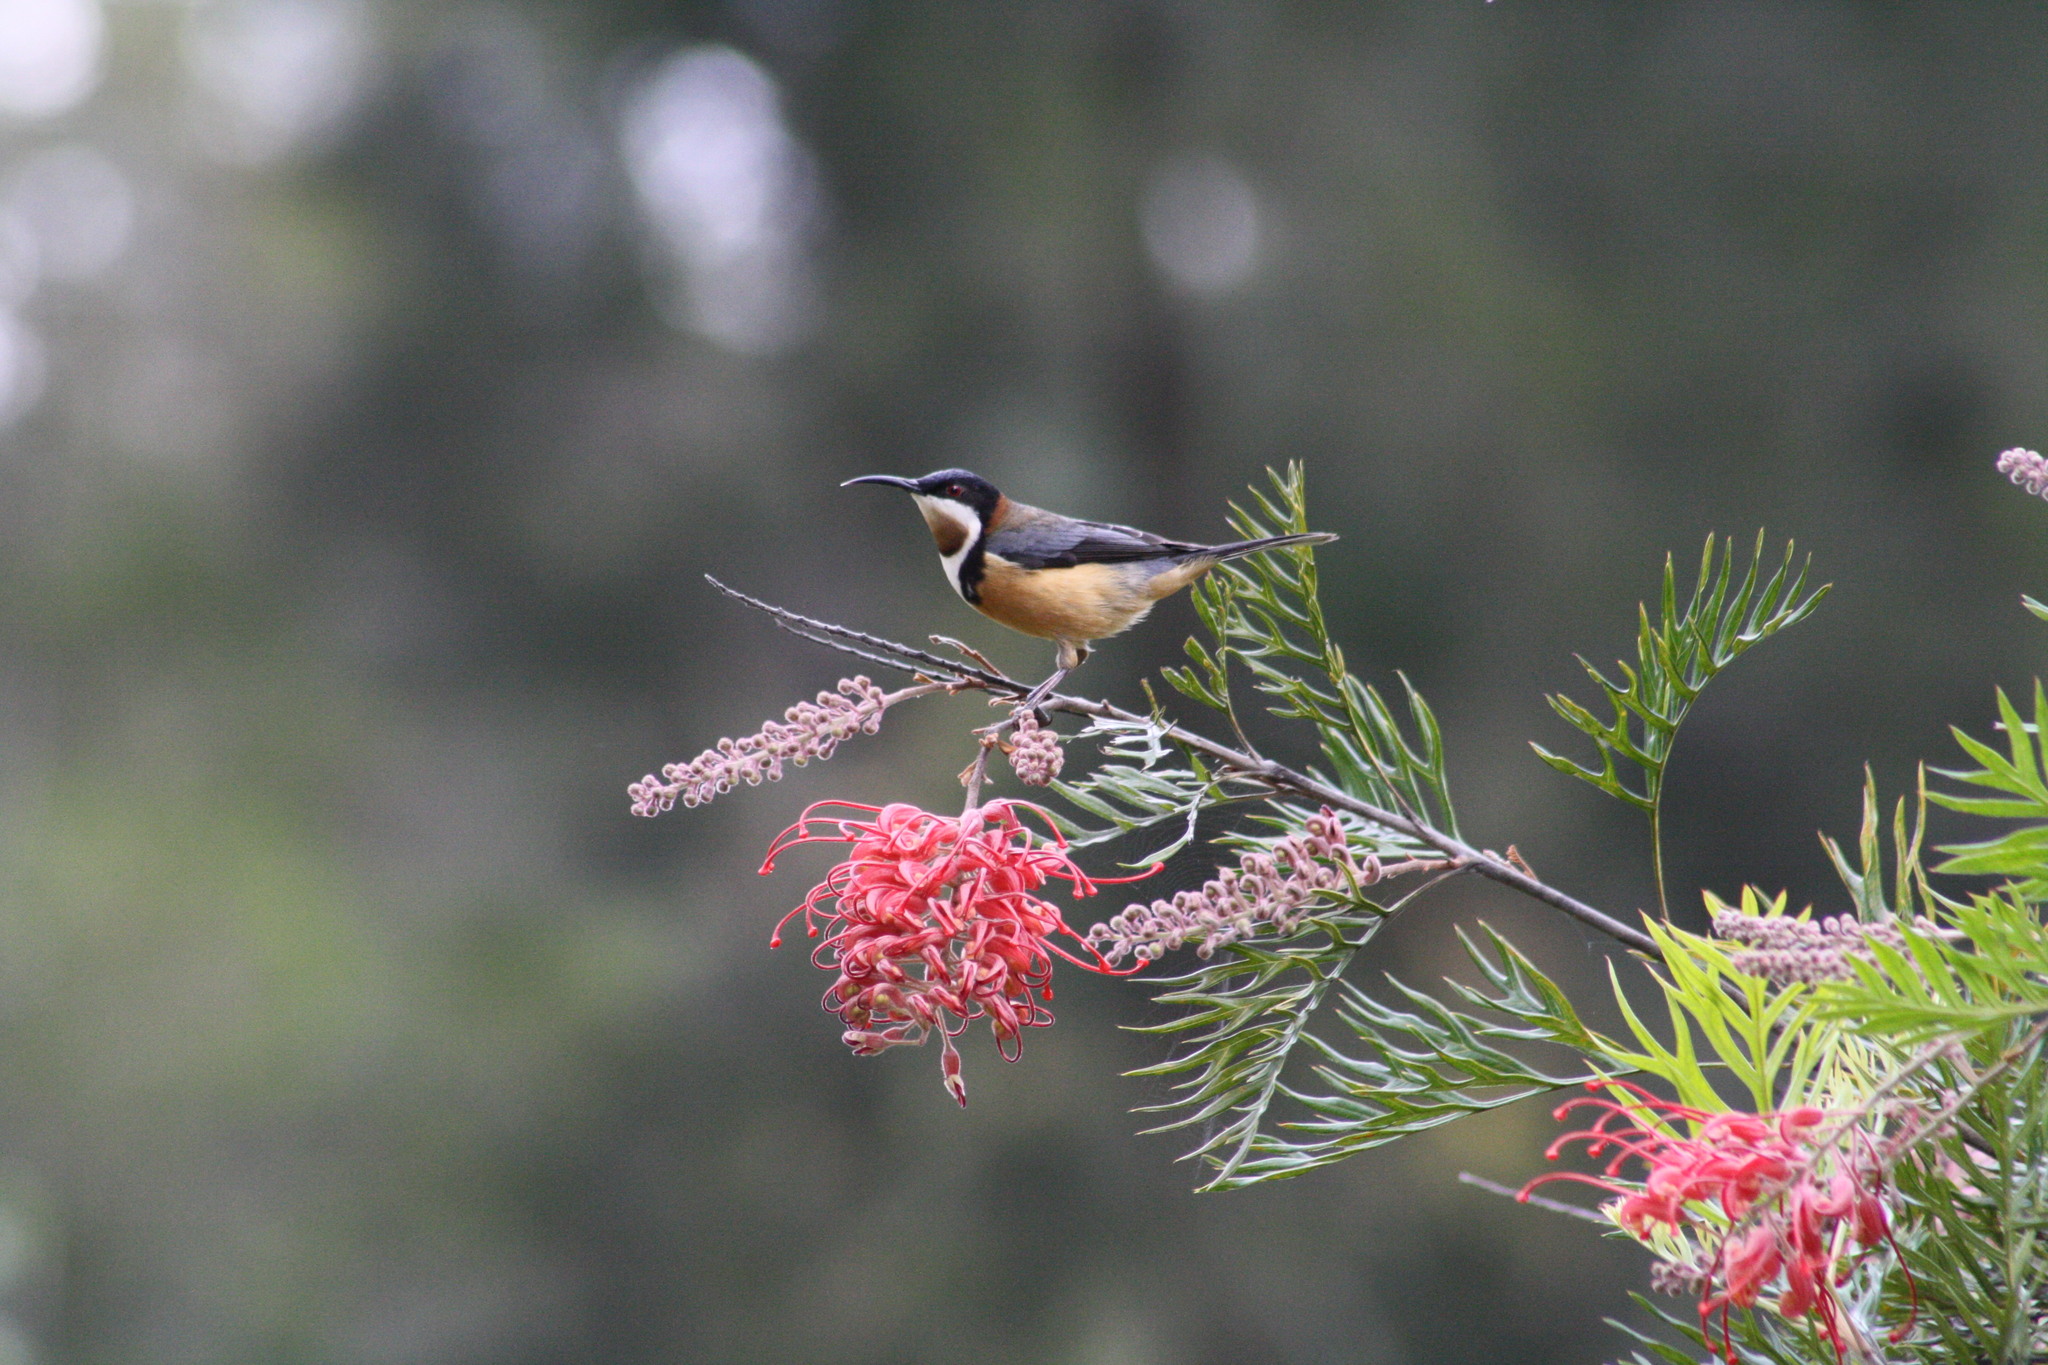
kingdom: Animalia
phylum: Chordata
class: Aves
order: Passeriformes
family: Meliphagidae
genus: Acanthorhynchus
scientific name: Acanthorhynchus tenuirostris
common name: Eastern spinebill
